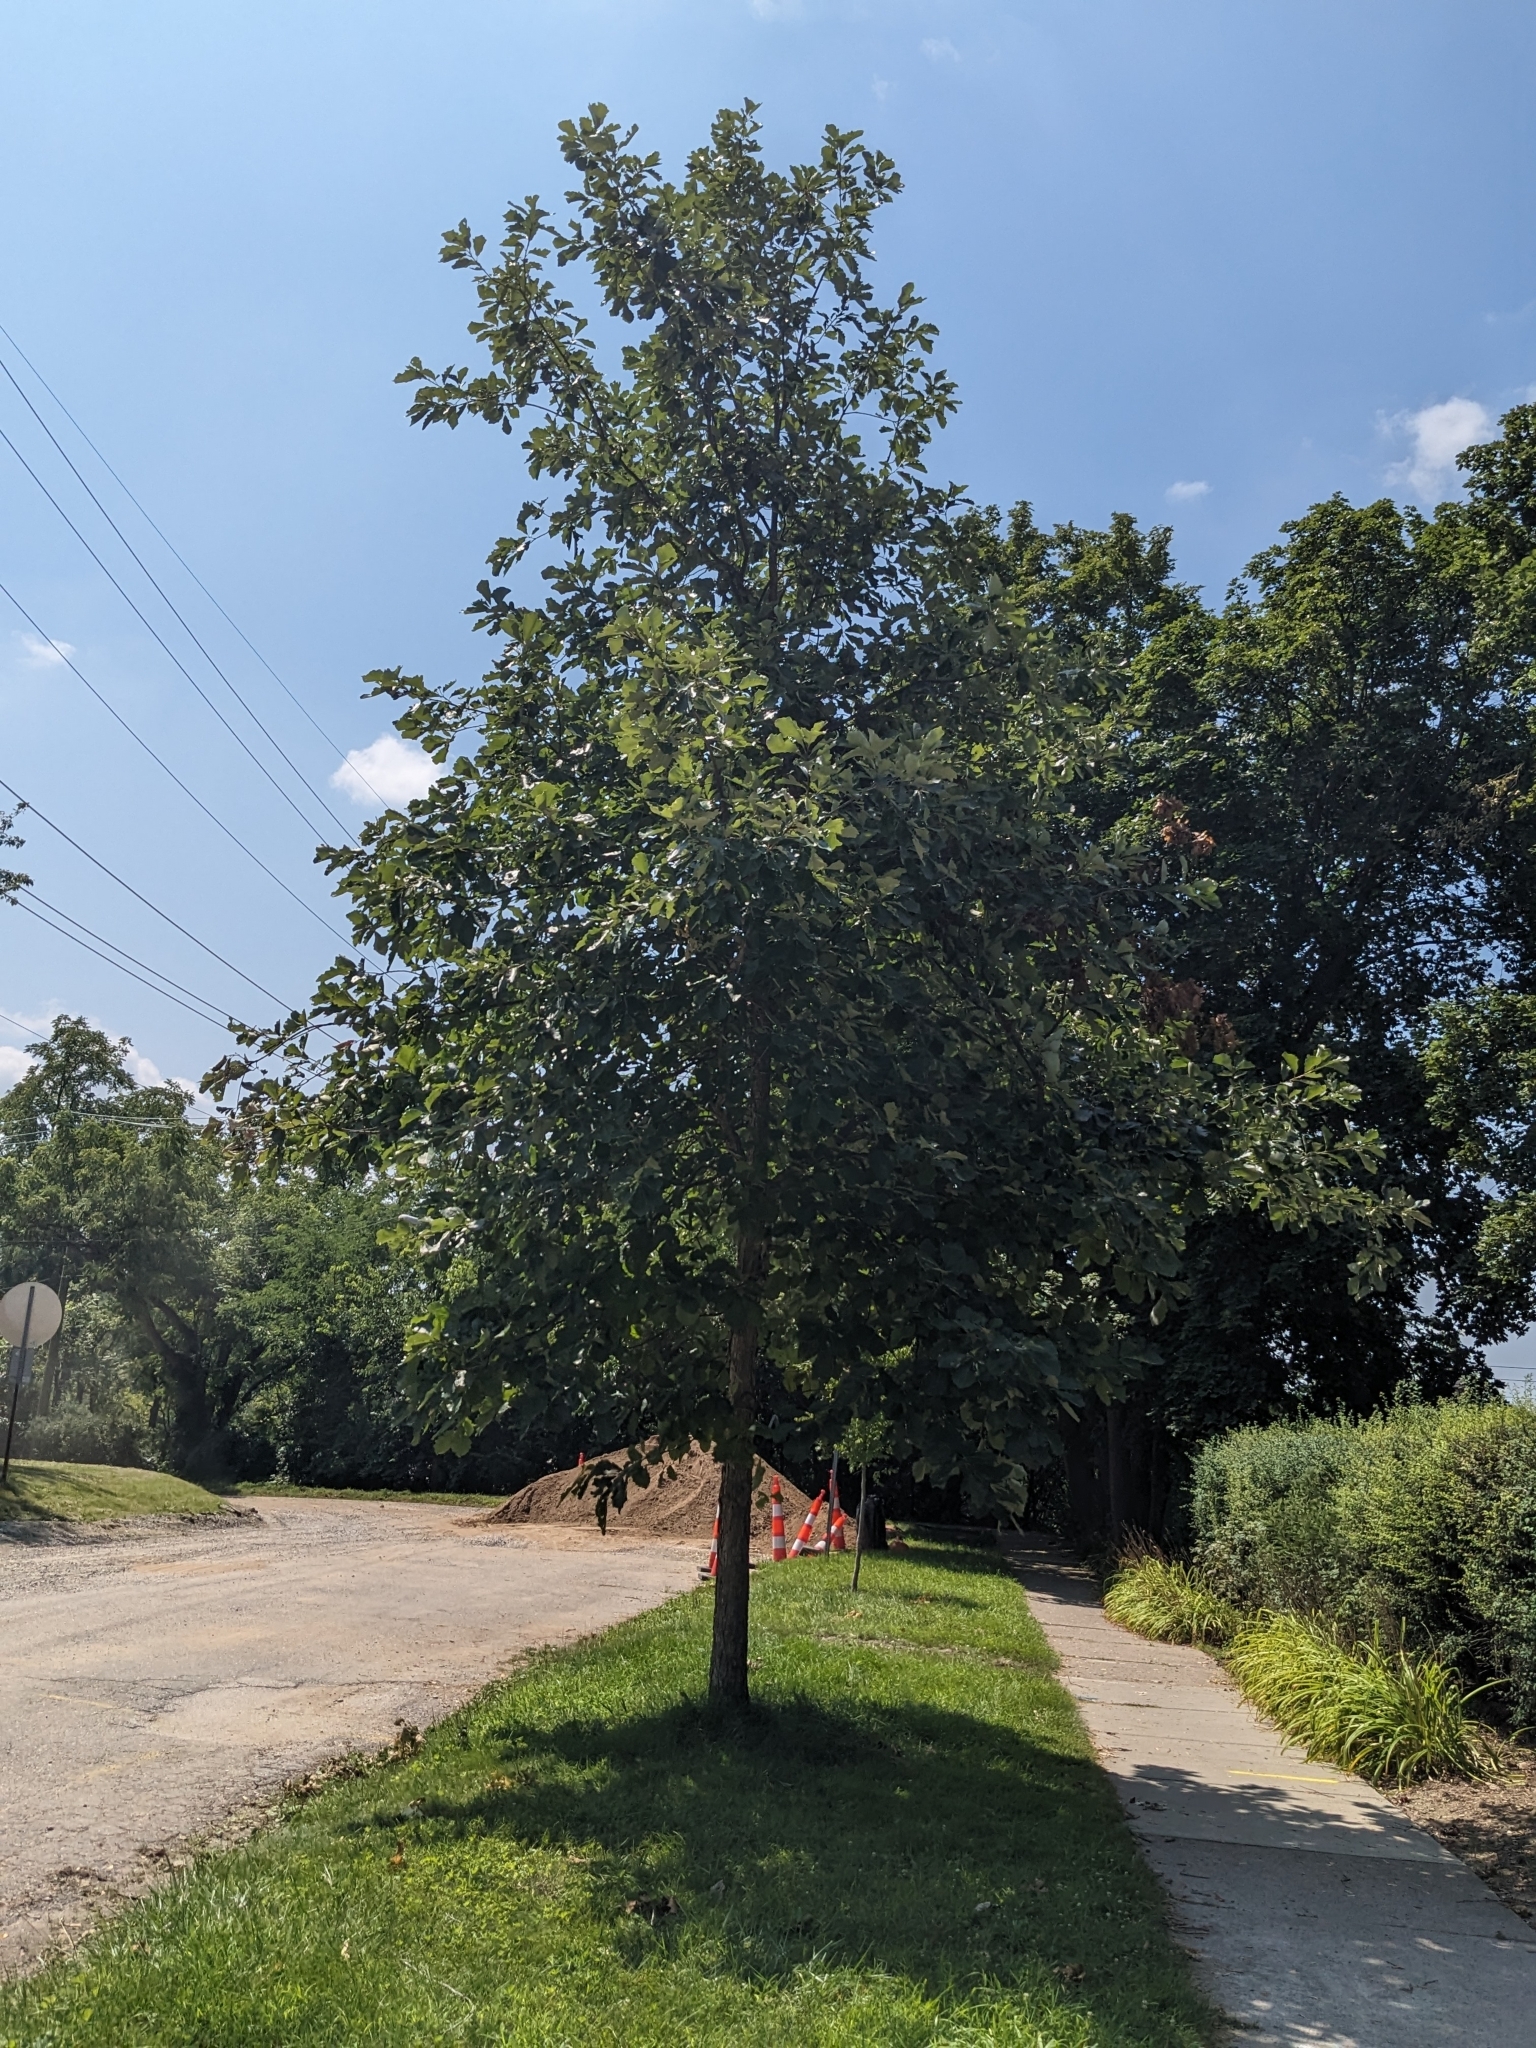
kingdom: Plantae
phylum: Tracheophyta
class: Magnoliopsida
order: Fagales
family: Fagaceae
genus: Quercus
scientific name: Quercus bicolor
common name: Swamp white oak
